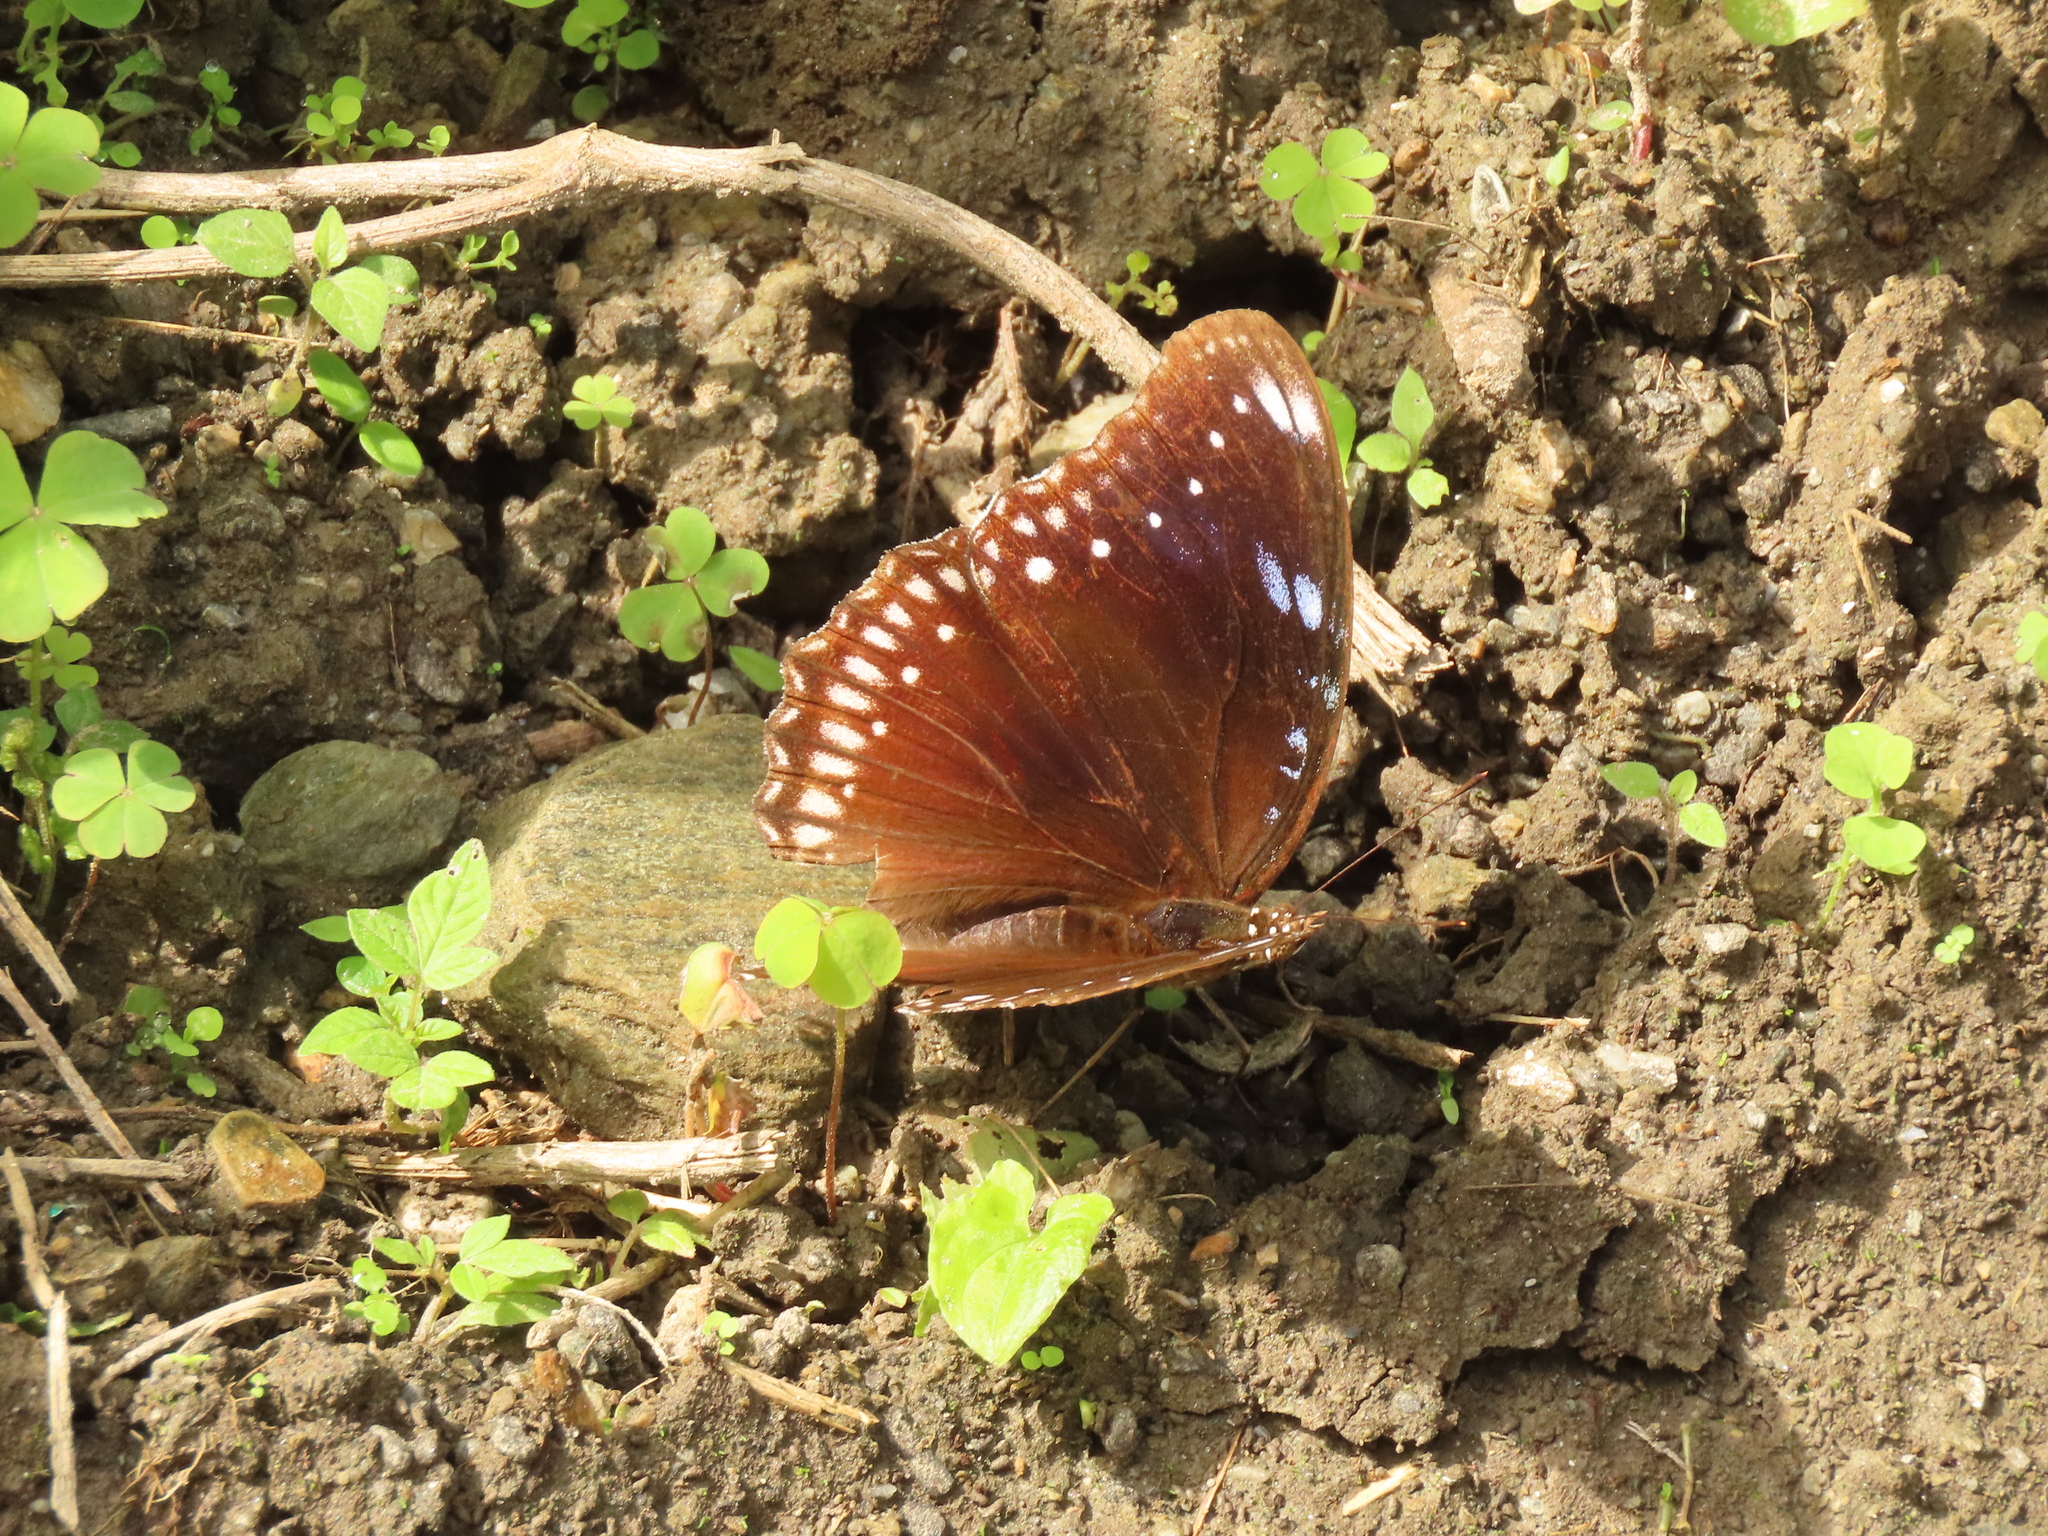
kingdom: Animalia
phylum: Arthropoda
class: Insecta
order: Lepidoptera
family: Nymphalidae
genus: Hypolimnas
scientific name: Hypolimnas bolina
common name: Great eggfly
